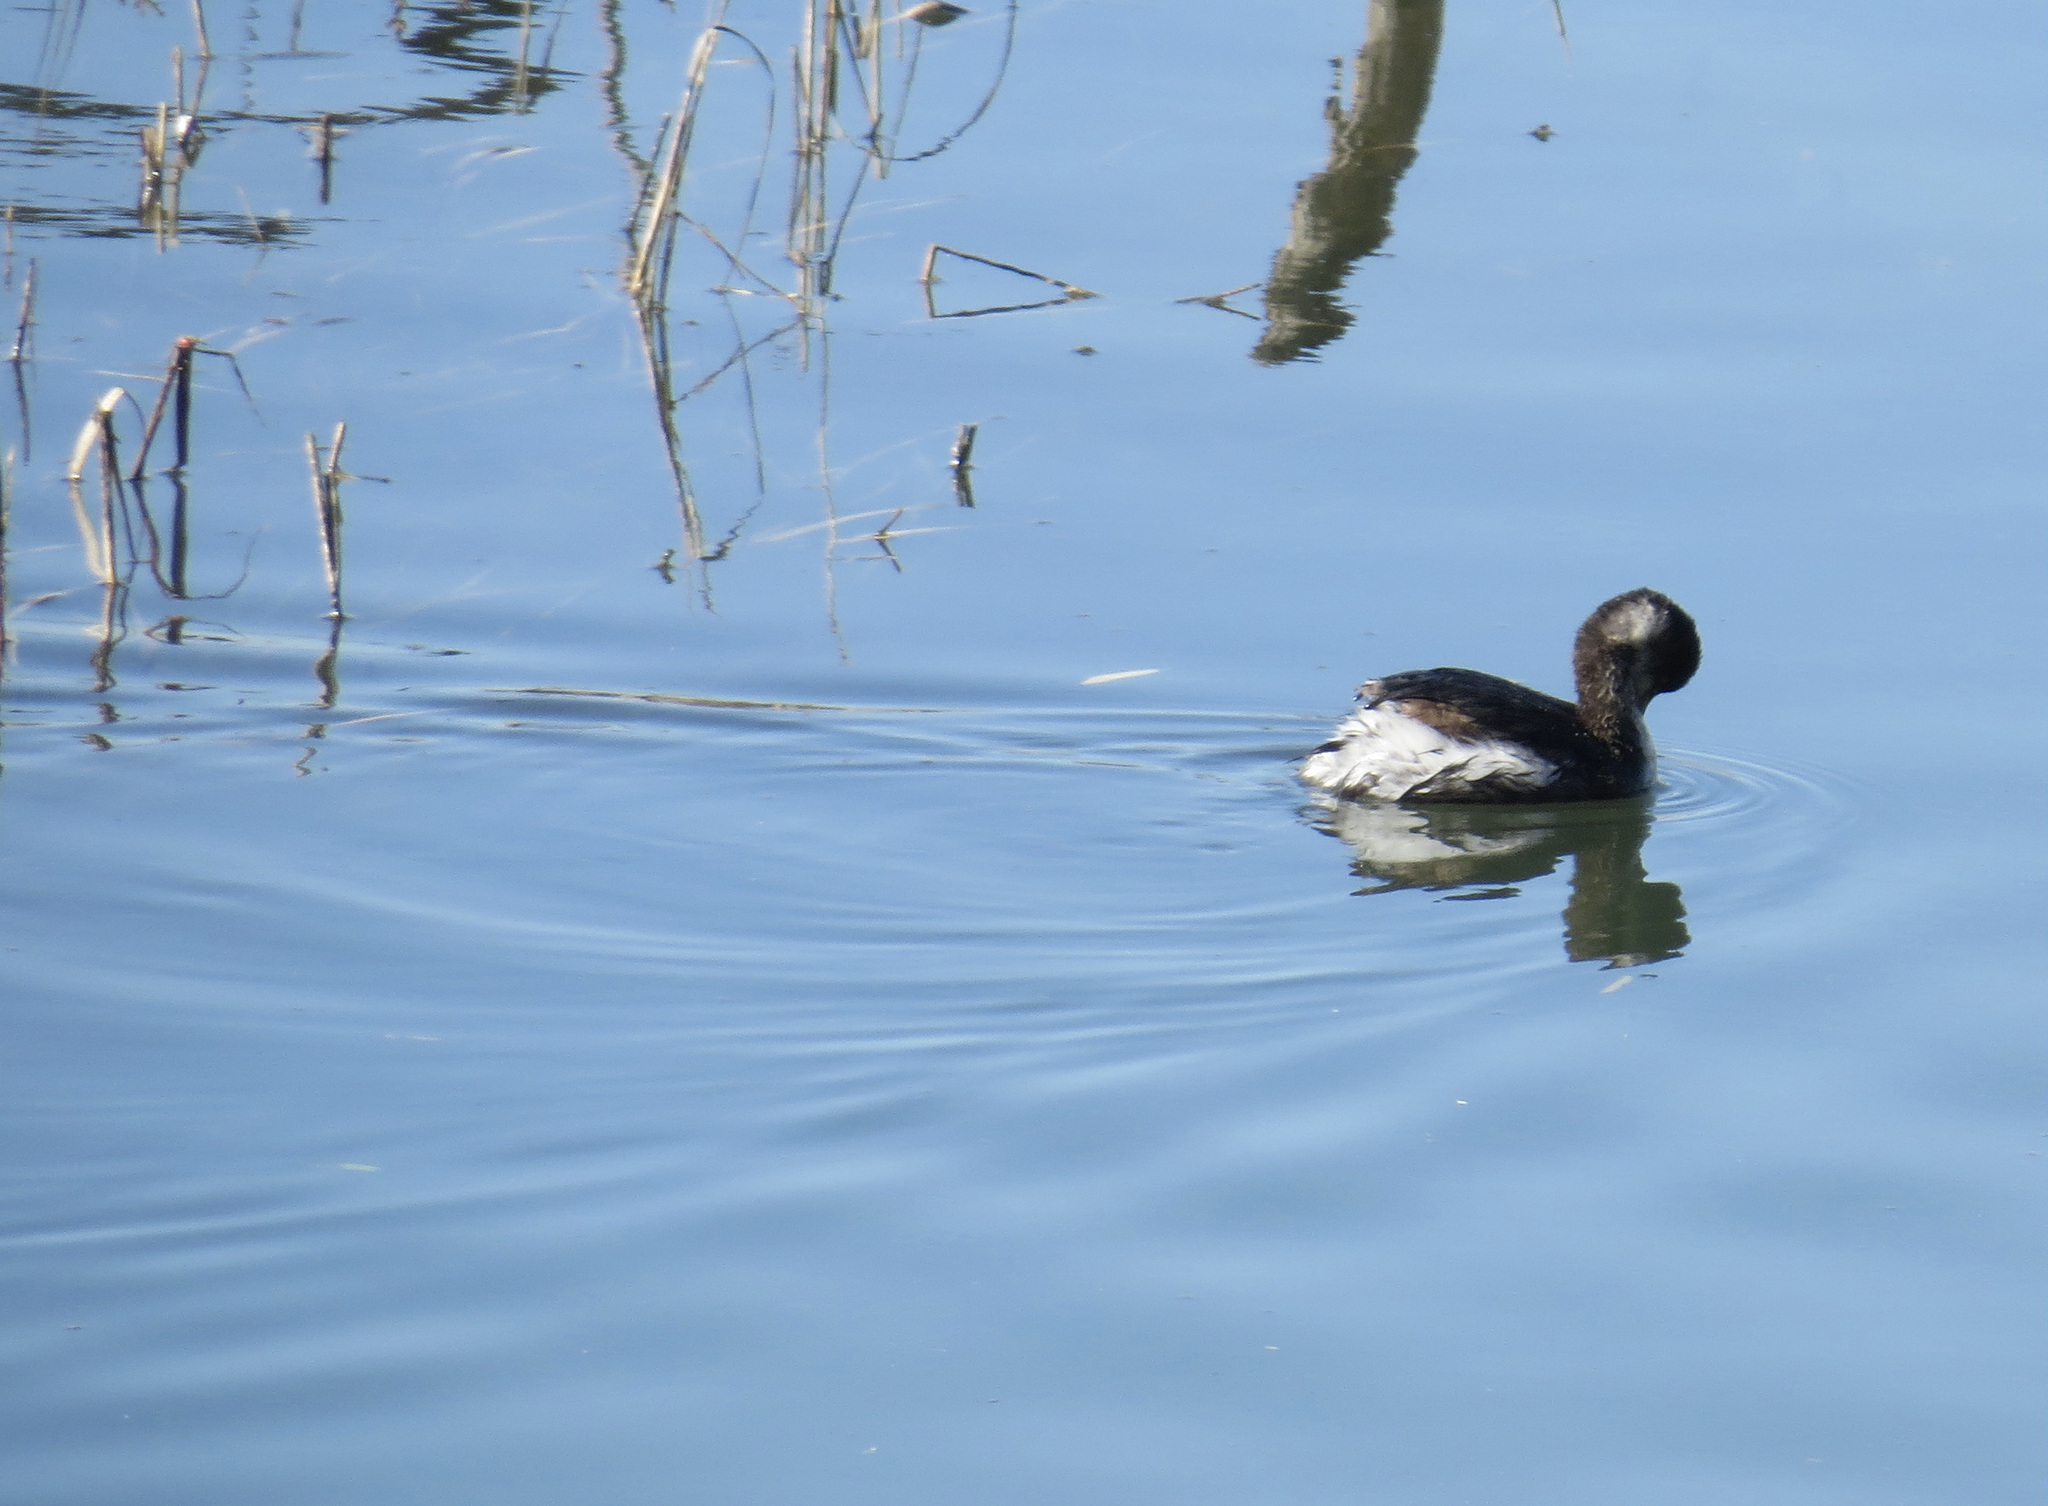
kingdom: Animalia
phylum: Chordata
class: Aves
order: Podicipediformes
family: Podicipedidae
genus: Podiceps
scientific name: Podiceps nigricollis
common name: Black-necked grebe
